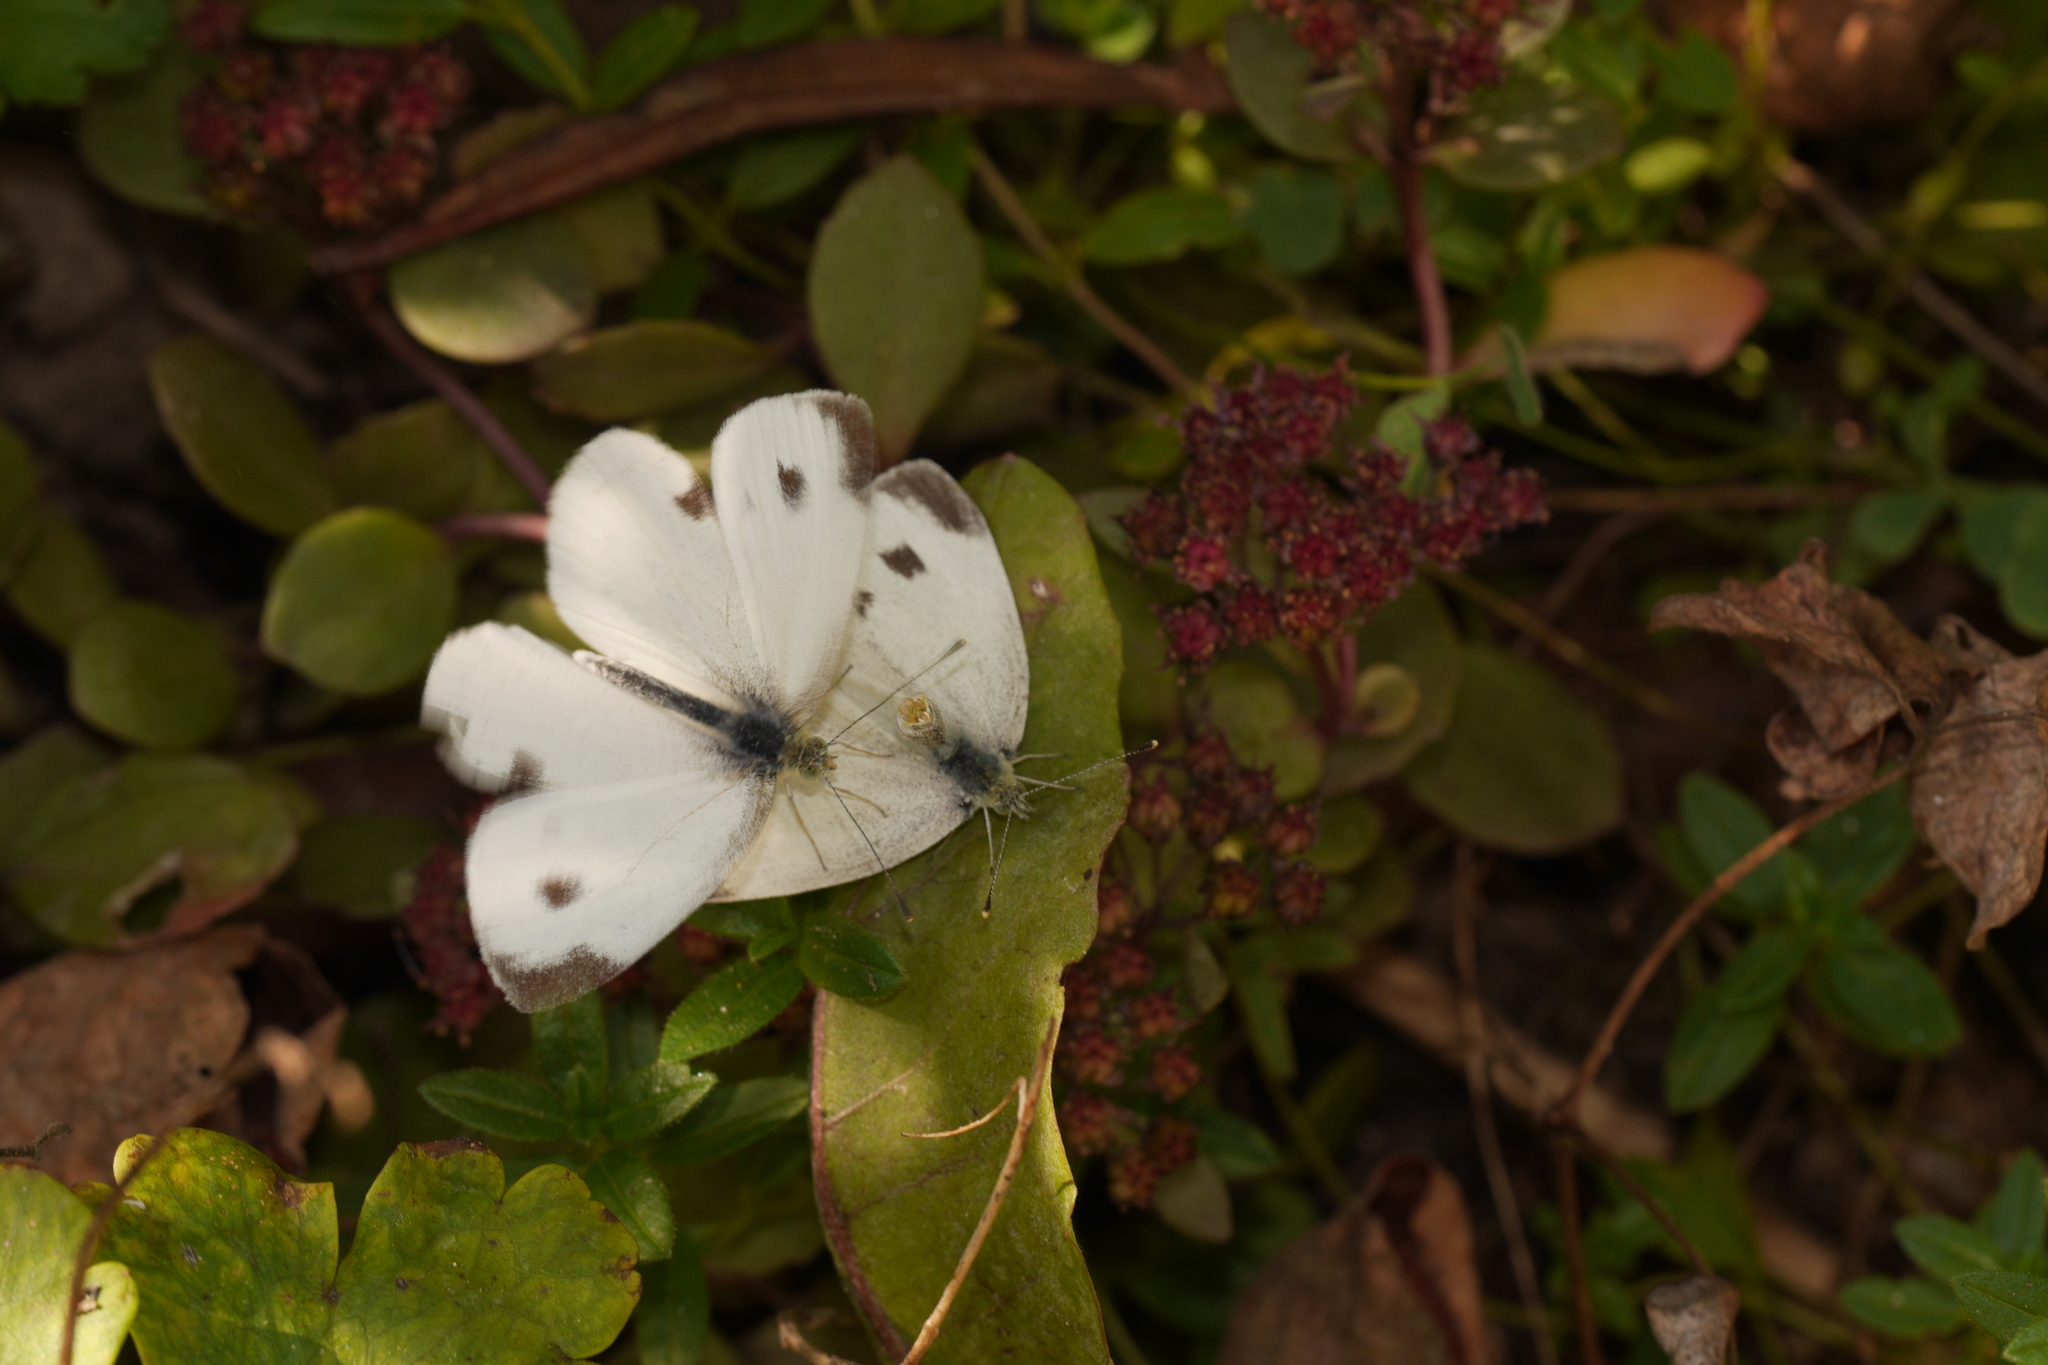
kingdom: Animalia
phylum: Arthropoda
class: Insecta
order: Lepidoptera
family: Pieridae
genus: Pieris
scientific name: Pieris mannii
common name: Southern small white
